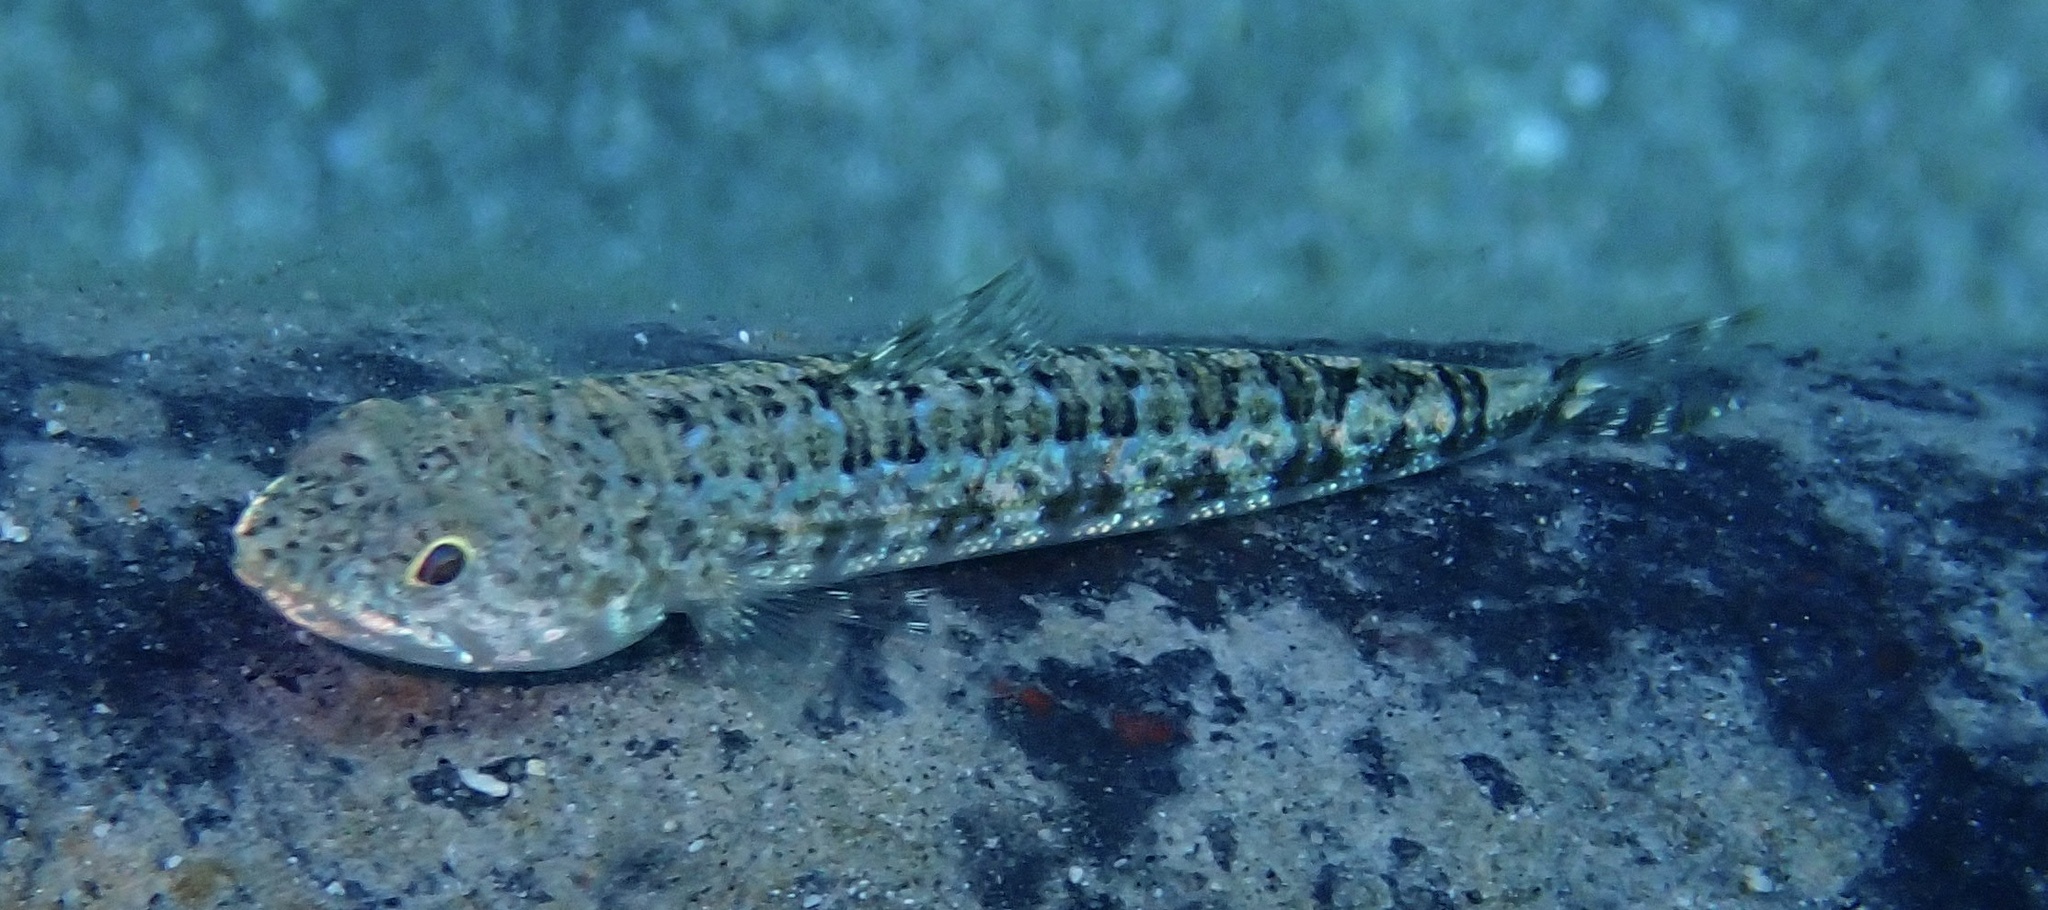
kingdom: Animalia
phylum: Chordata
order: Aulopiformes
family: Synodontidae
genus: Synodus
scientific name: Synodus variegatus
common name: Variegated lizardfish
